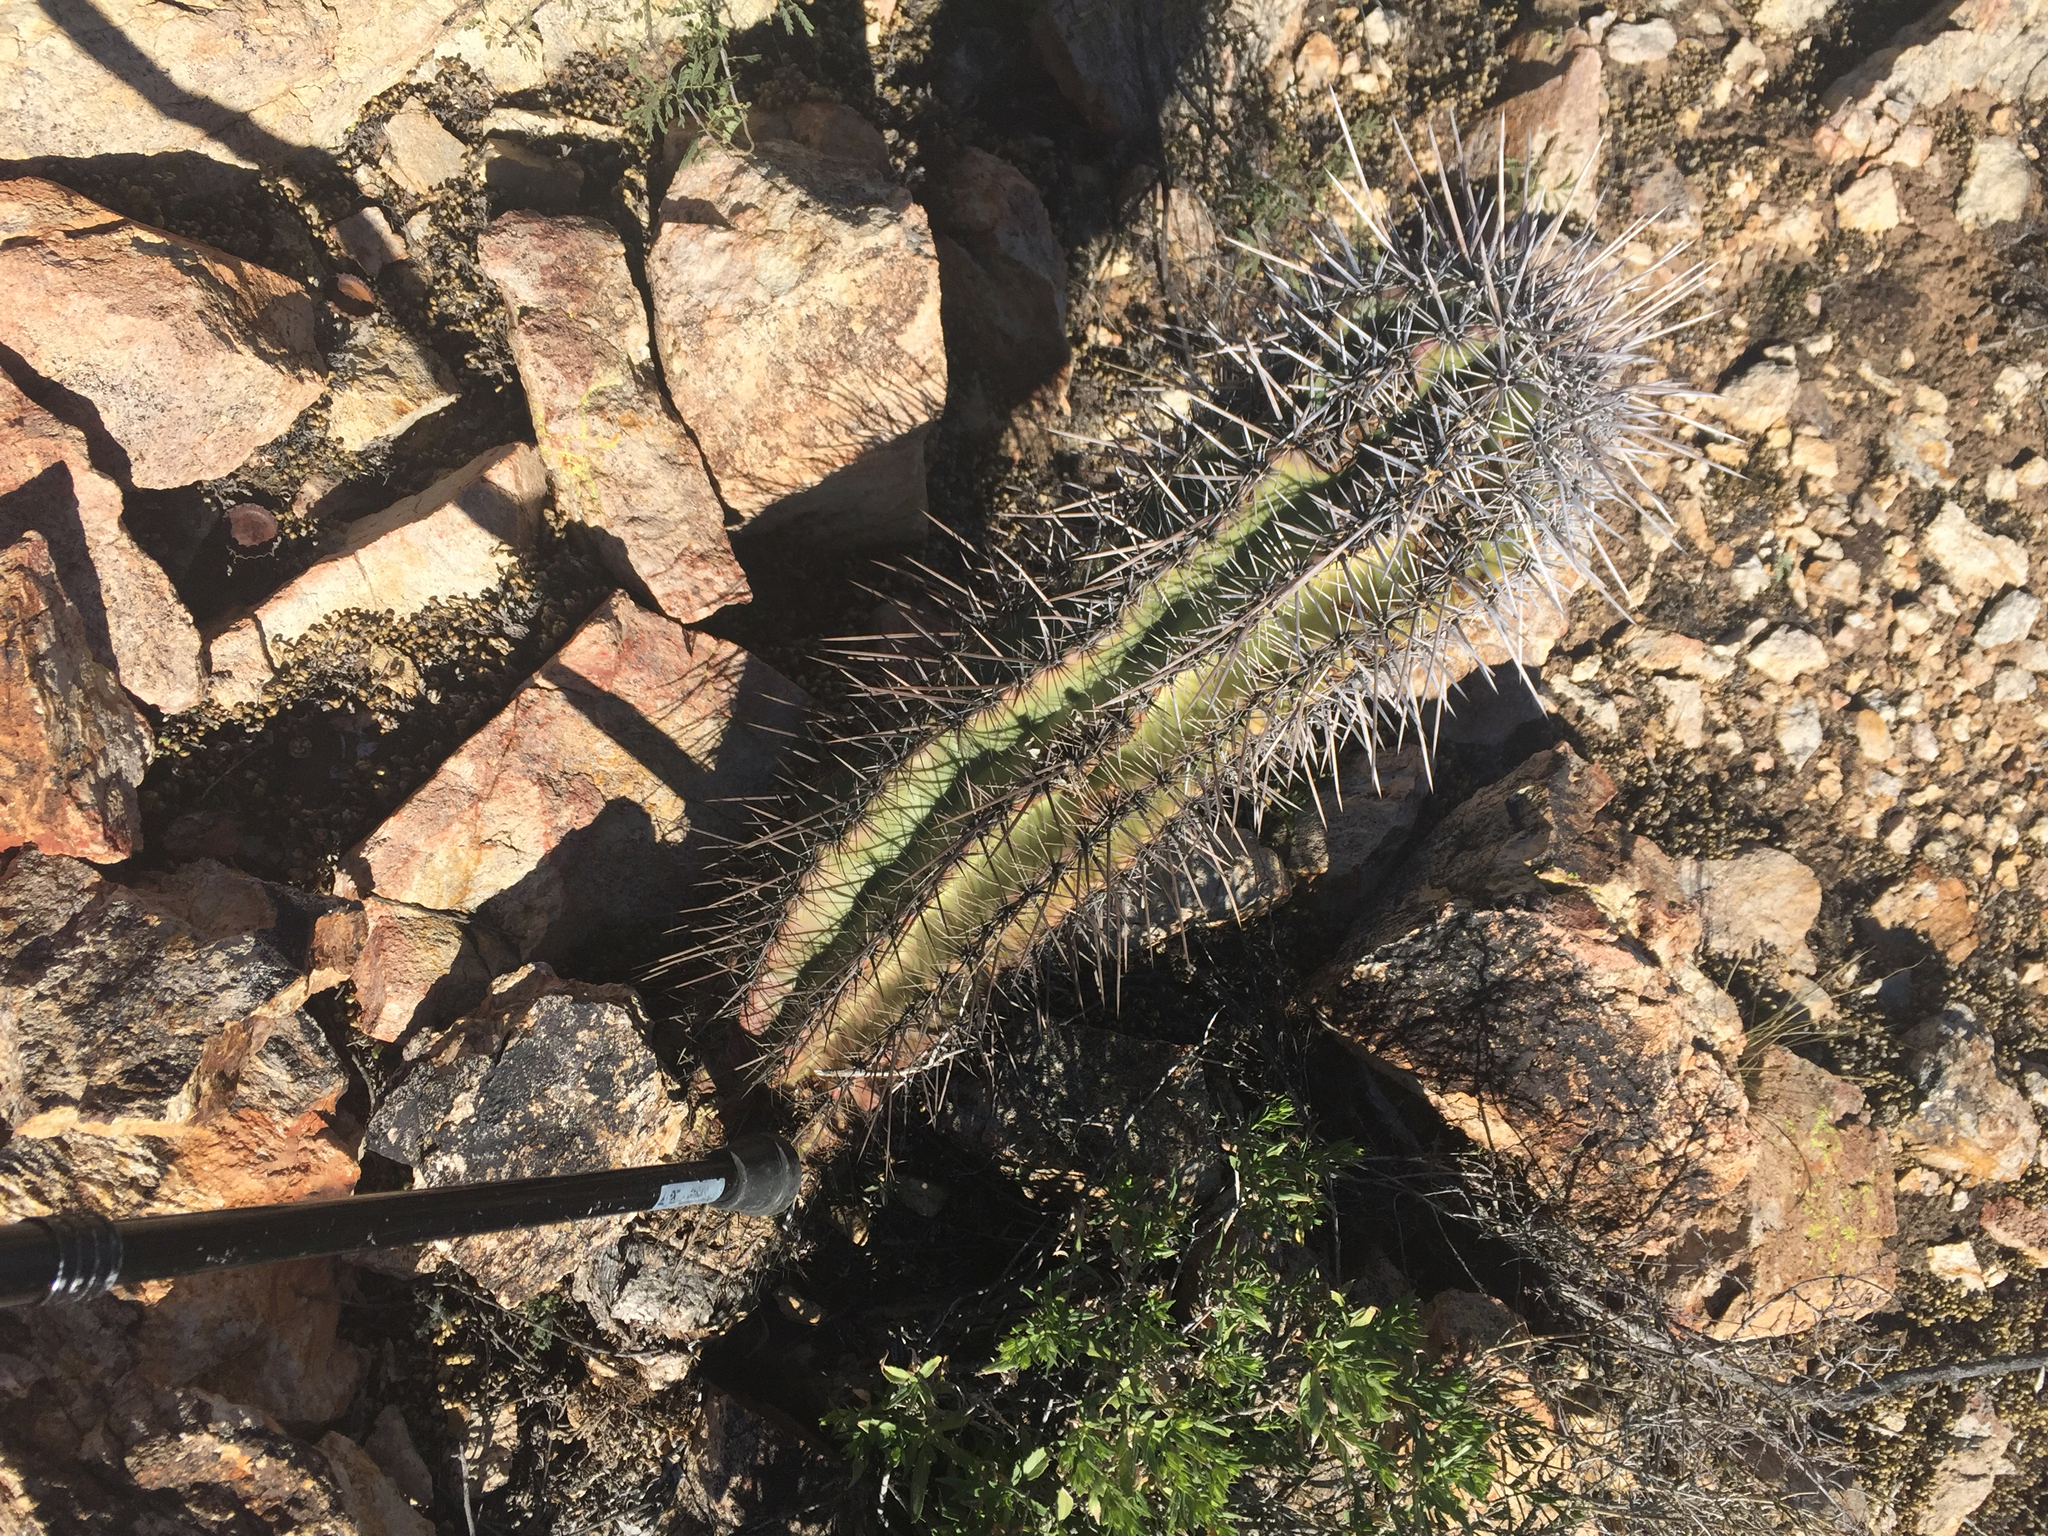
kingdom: Plantae
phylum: Tracheophyta
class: Magnoliopsida
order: Caryophyllales
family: Cactaceae
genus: Carnegiea
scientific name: Carnegiea gigantea
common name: Saguaro
